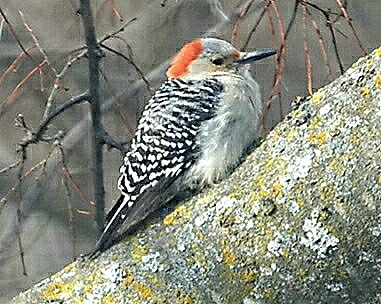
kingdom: Animalia
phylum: Chordata
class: Aves
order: Piciformes
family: Picidae
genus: Melanerpes
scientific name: Melanerpes carolinus
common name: Red-bellied woodpecker
